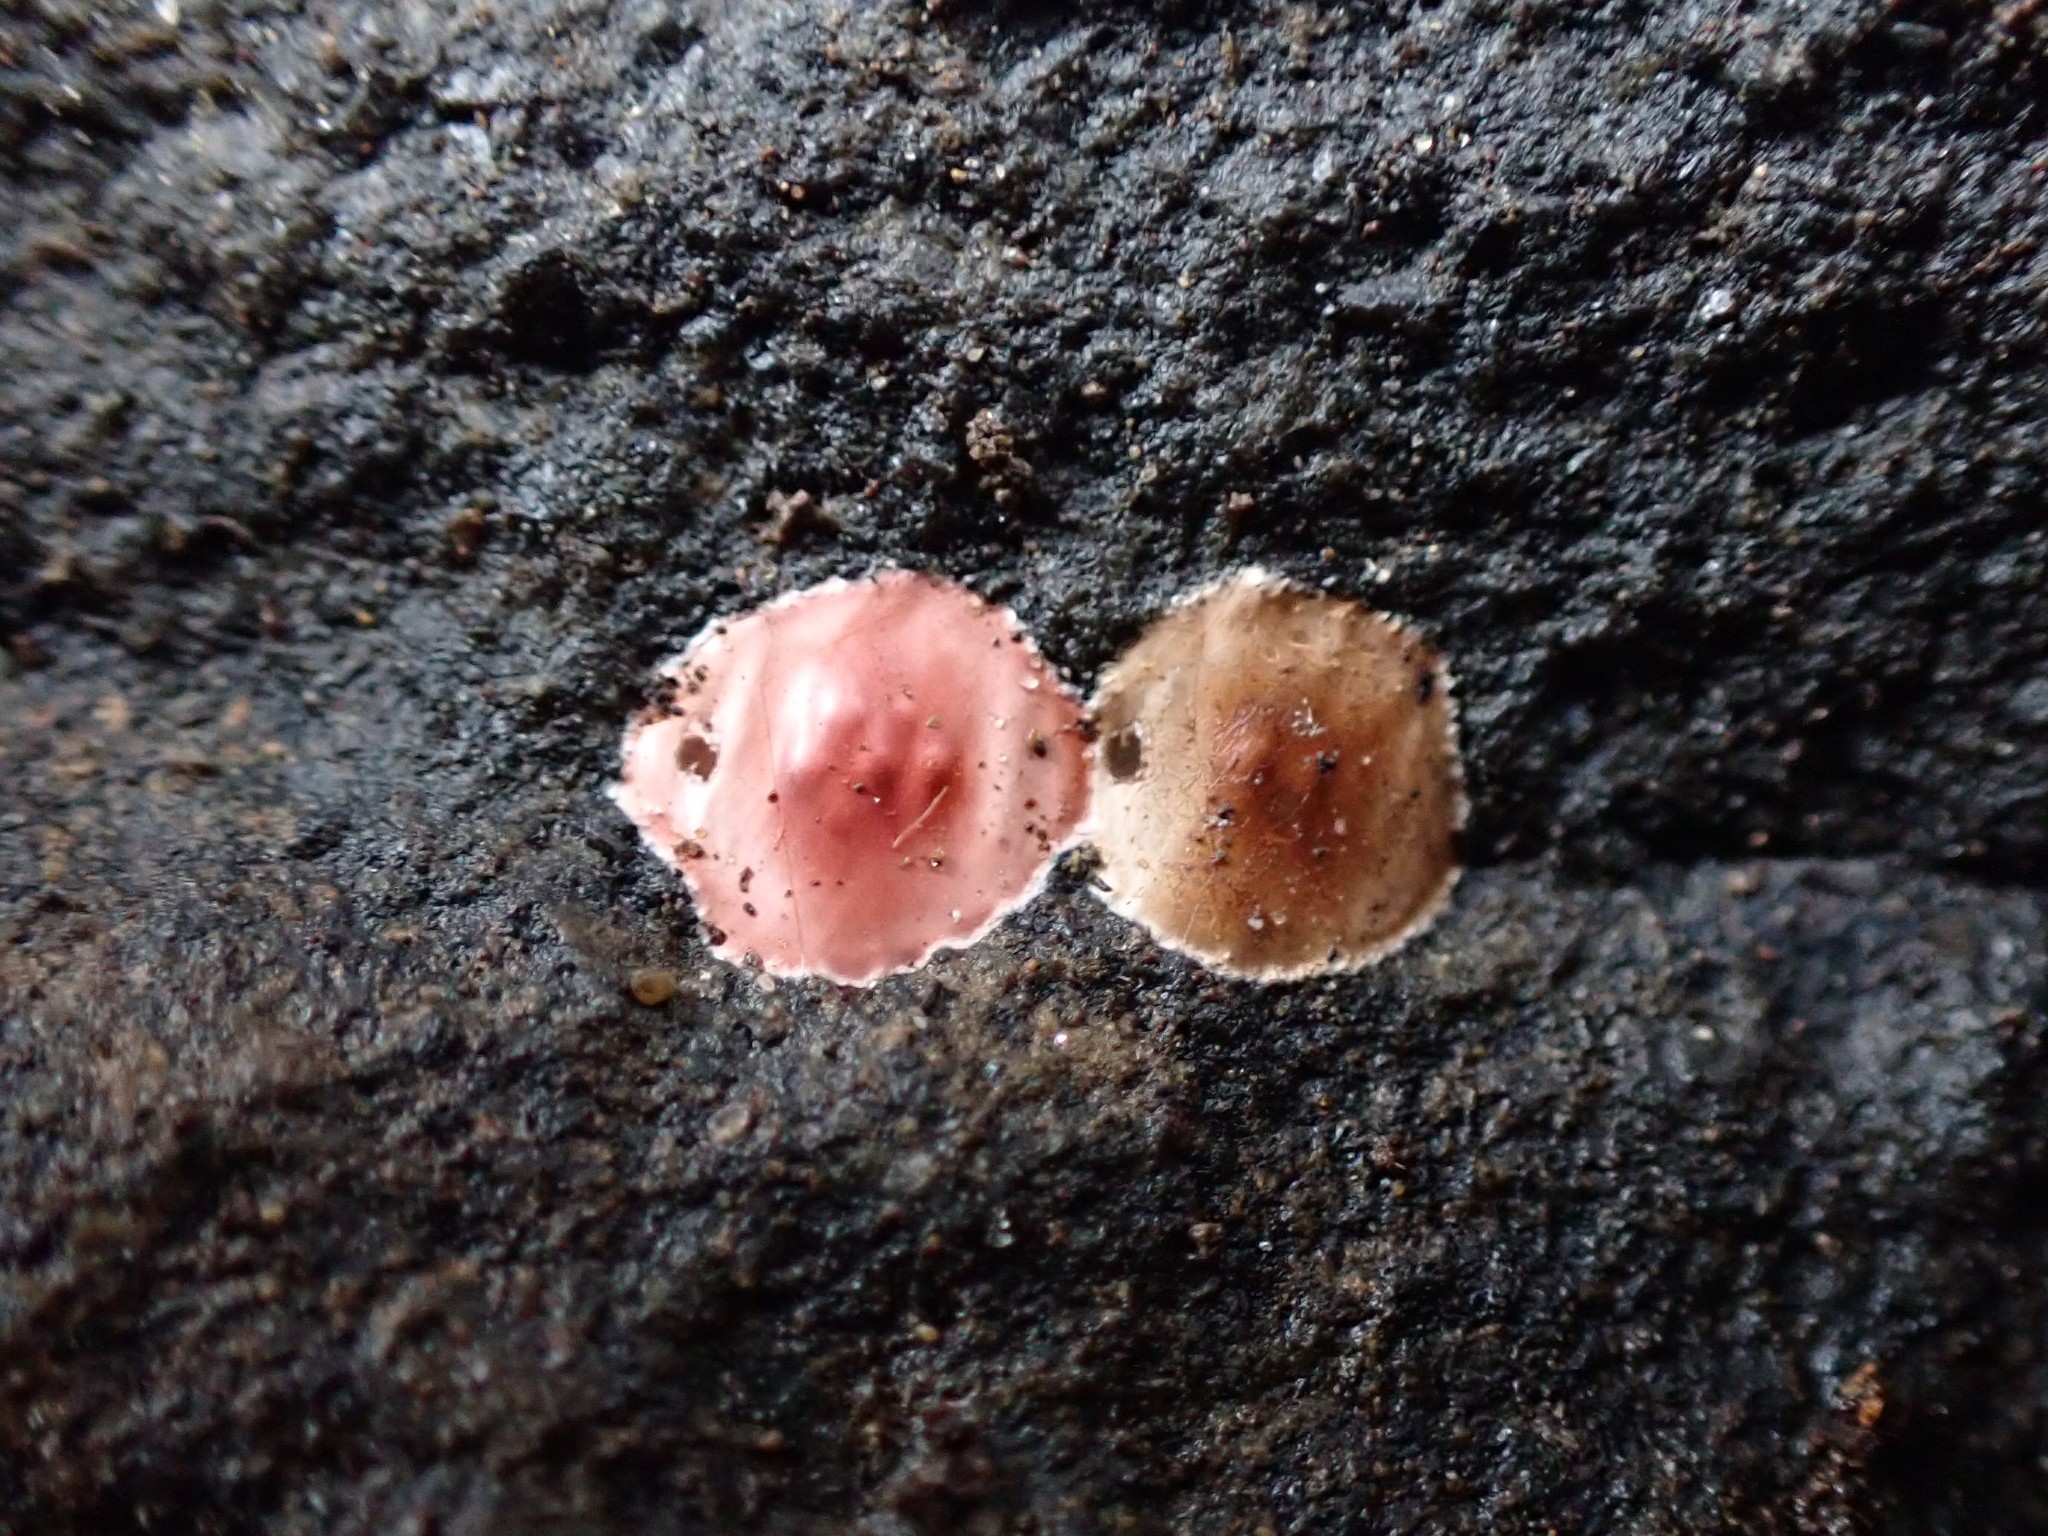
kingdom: Animalia
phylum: Arthropoda
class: Arachnida
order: Araneae
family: Phrurolithidae
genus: Phrurotimpus
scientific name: Phrurotimpus
